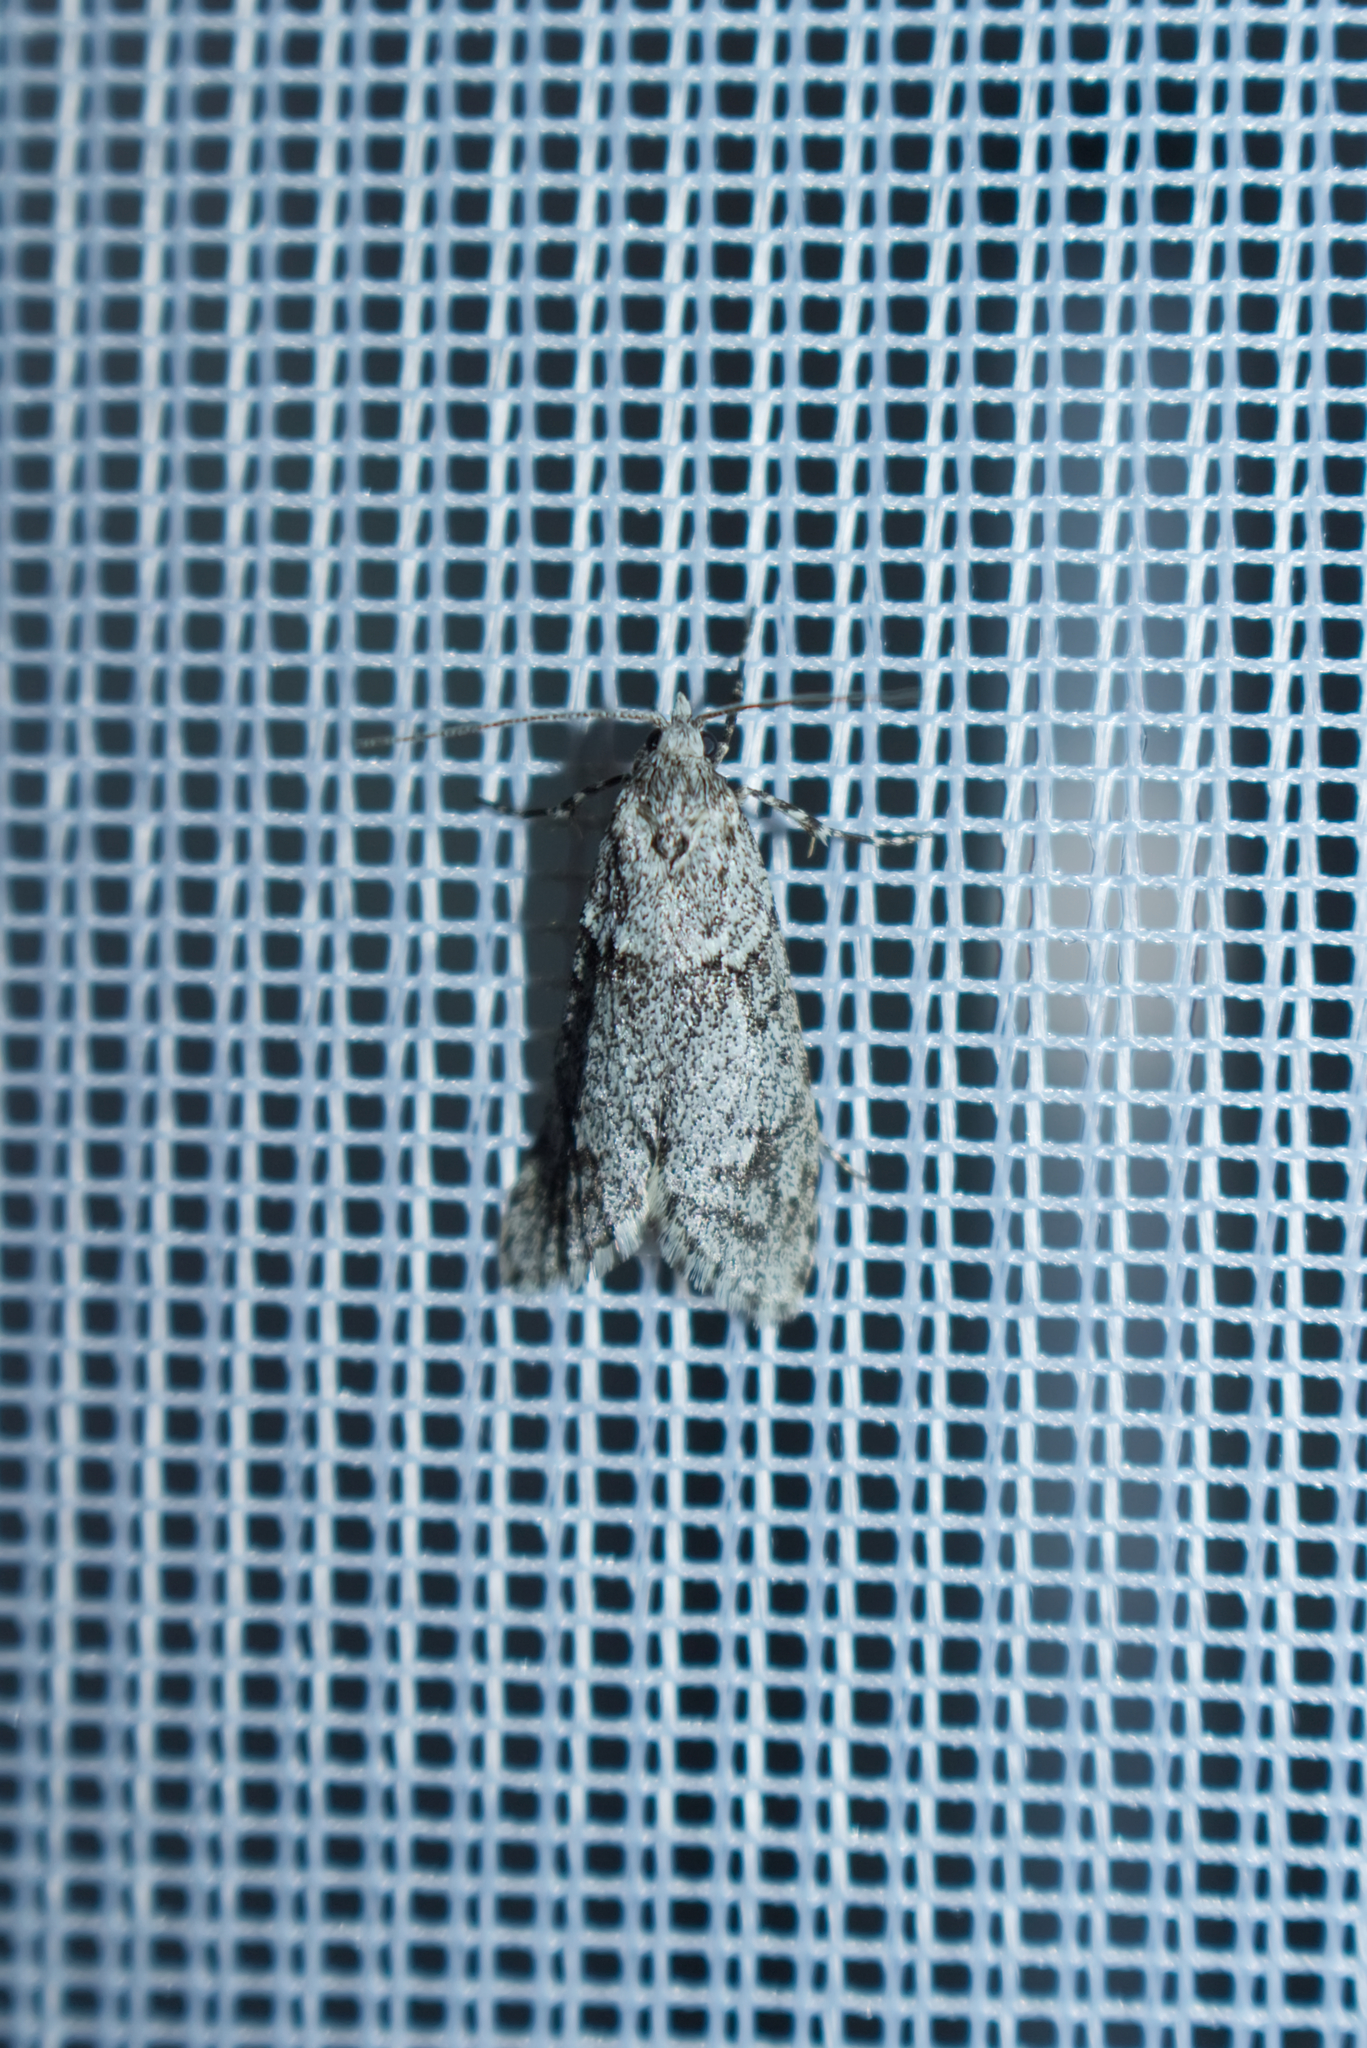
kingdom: Animalia
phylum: Arthropoda
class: Insecta
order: Lepidoptera
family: Lypusidae
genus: Diurnea
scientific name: Diurnea fagella
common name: March tubic
